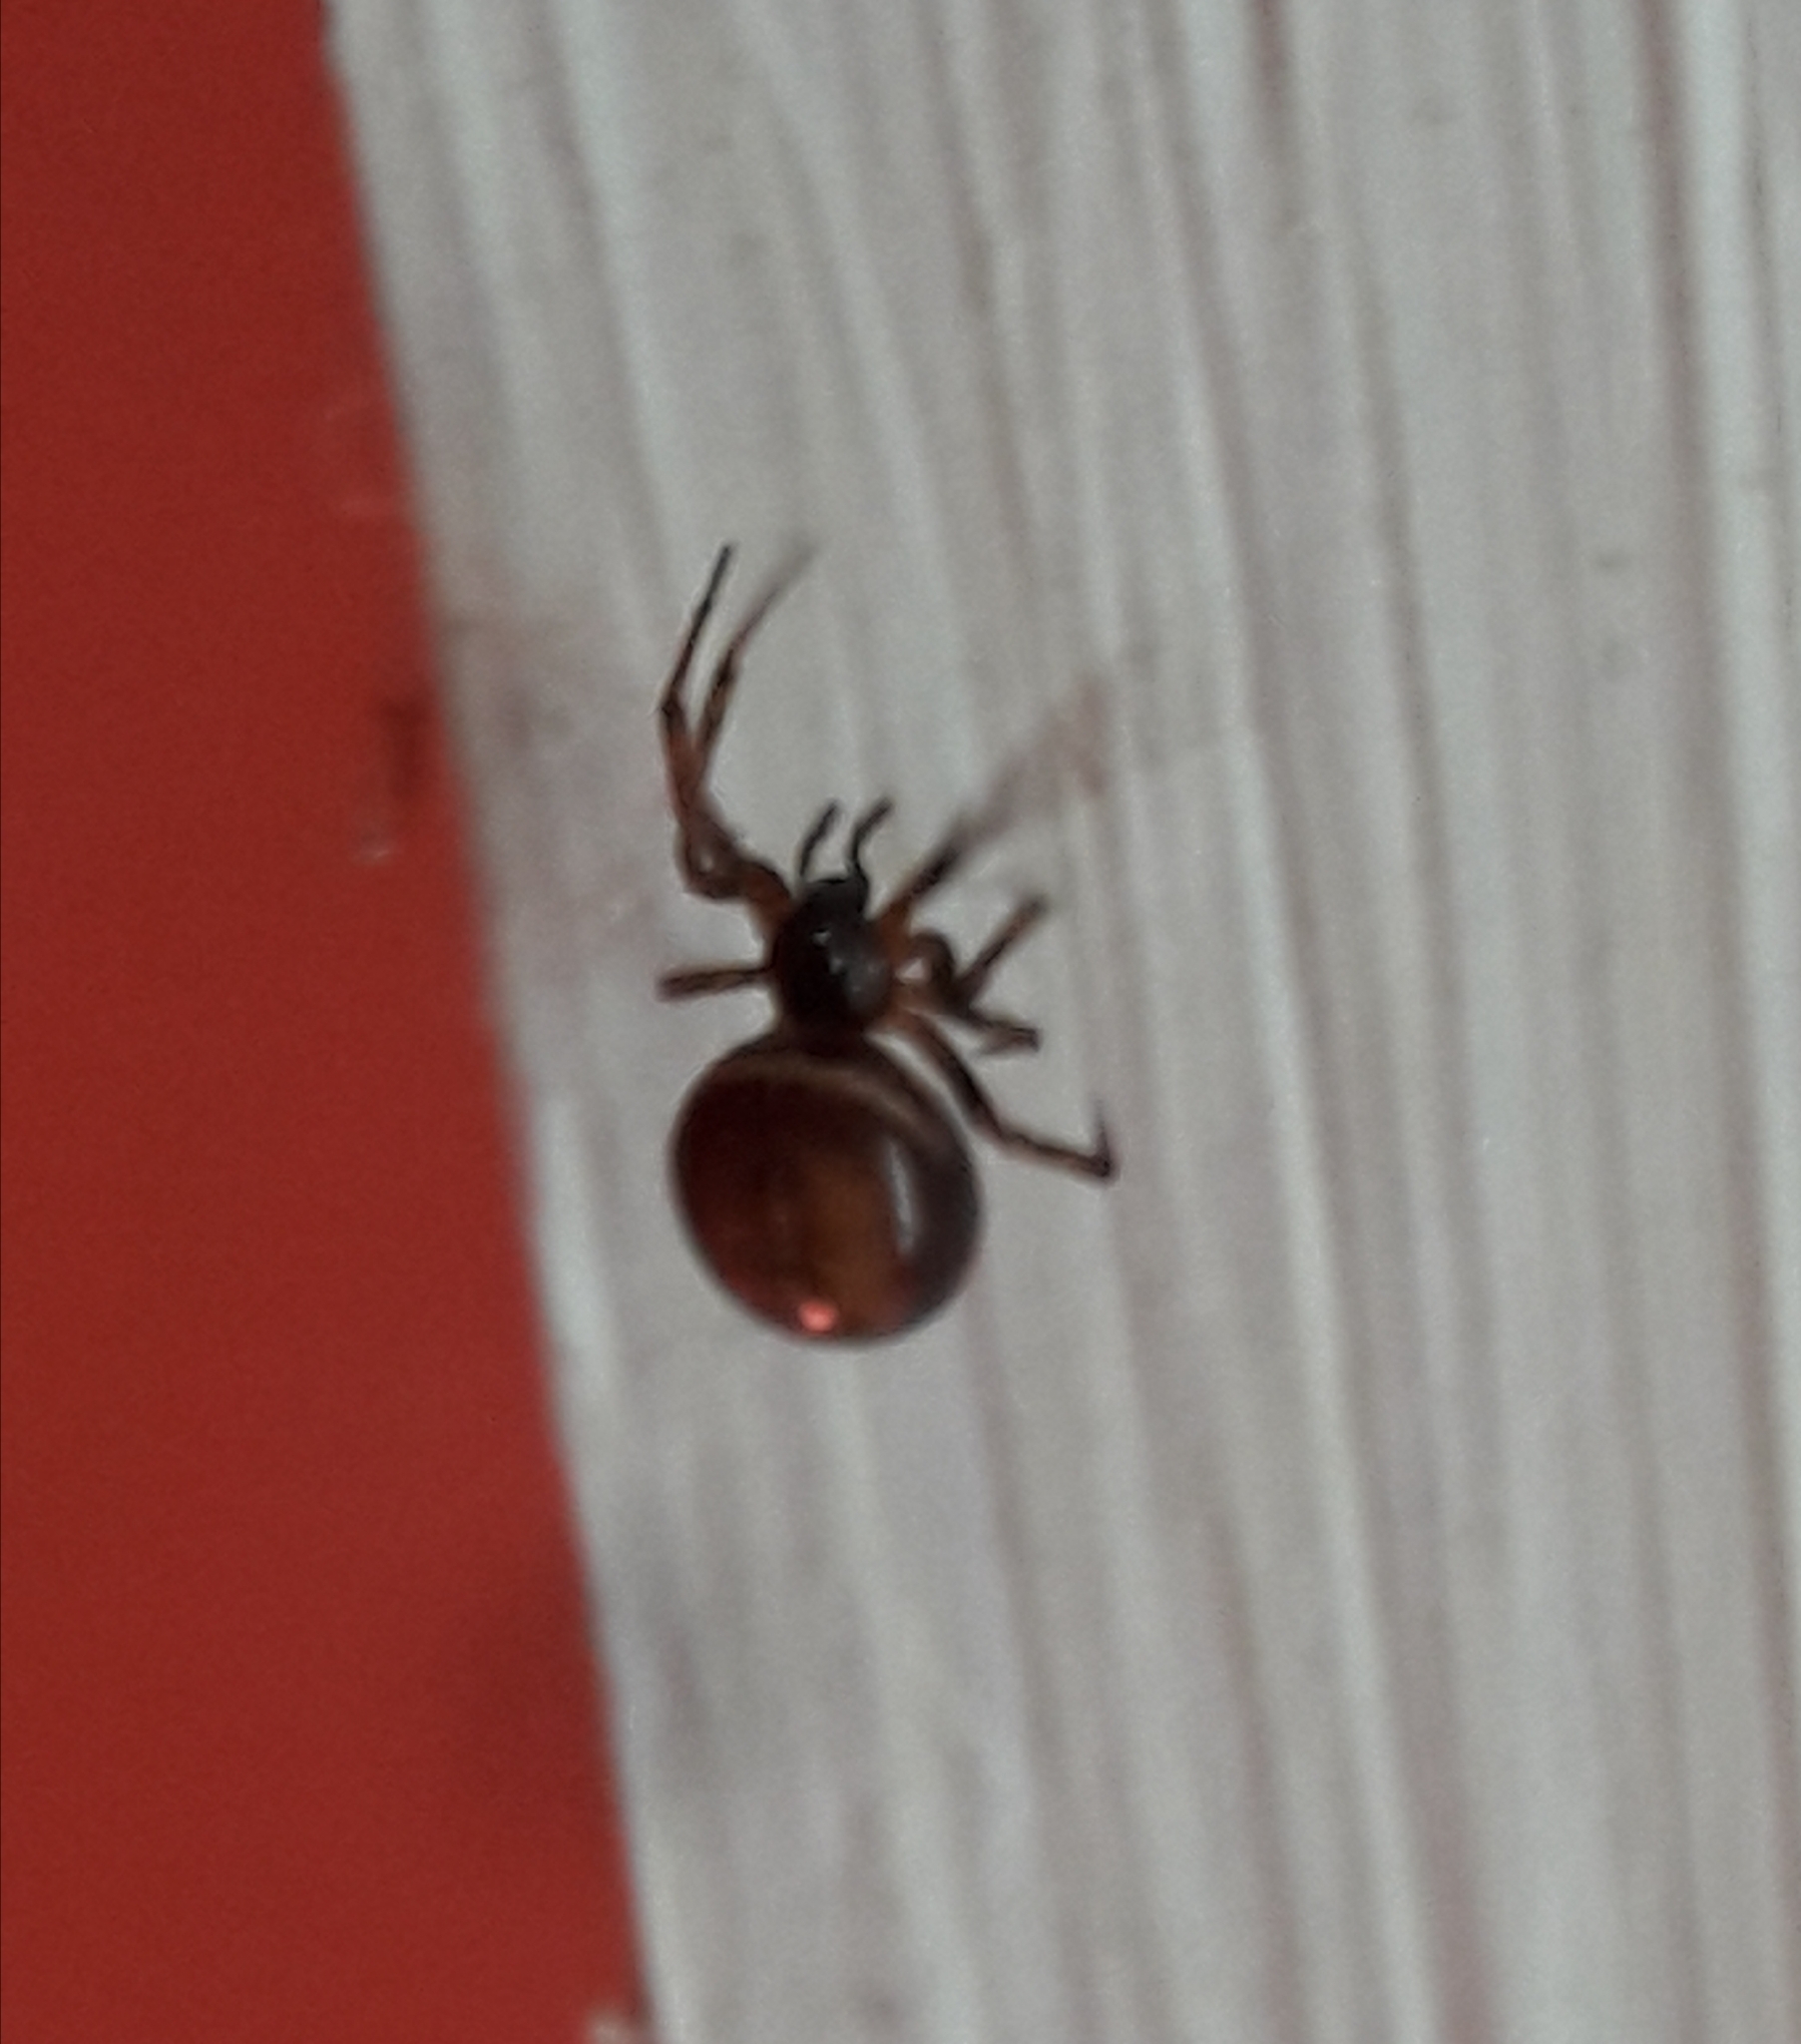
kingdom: Animalia
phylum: Arthropoda
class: Arachnida
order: Araneae
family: Theridiidae
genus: Steatoda
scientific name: Steatoda bipunctata
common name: False widow
